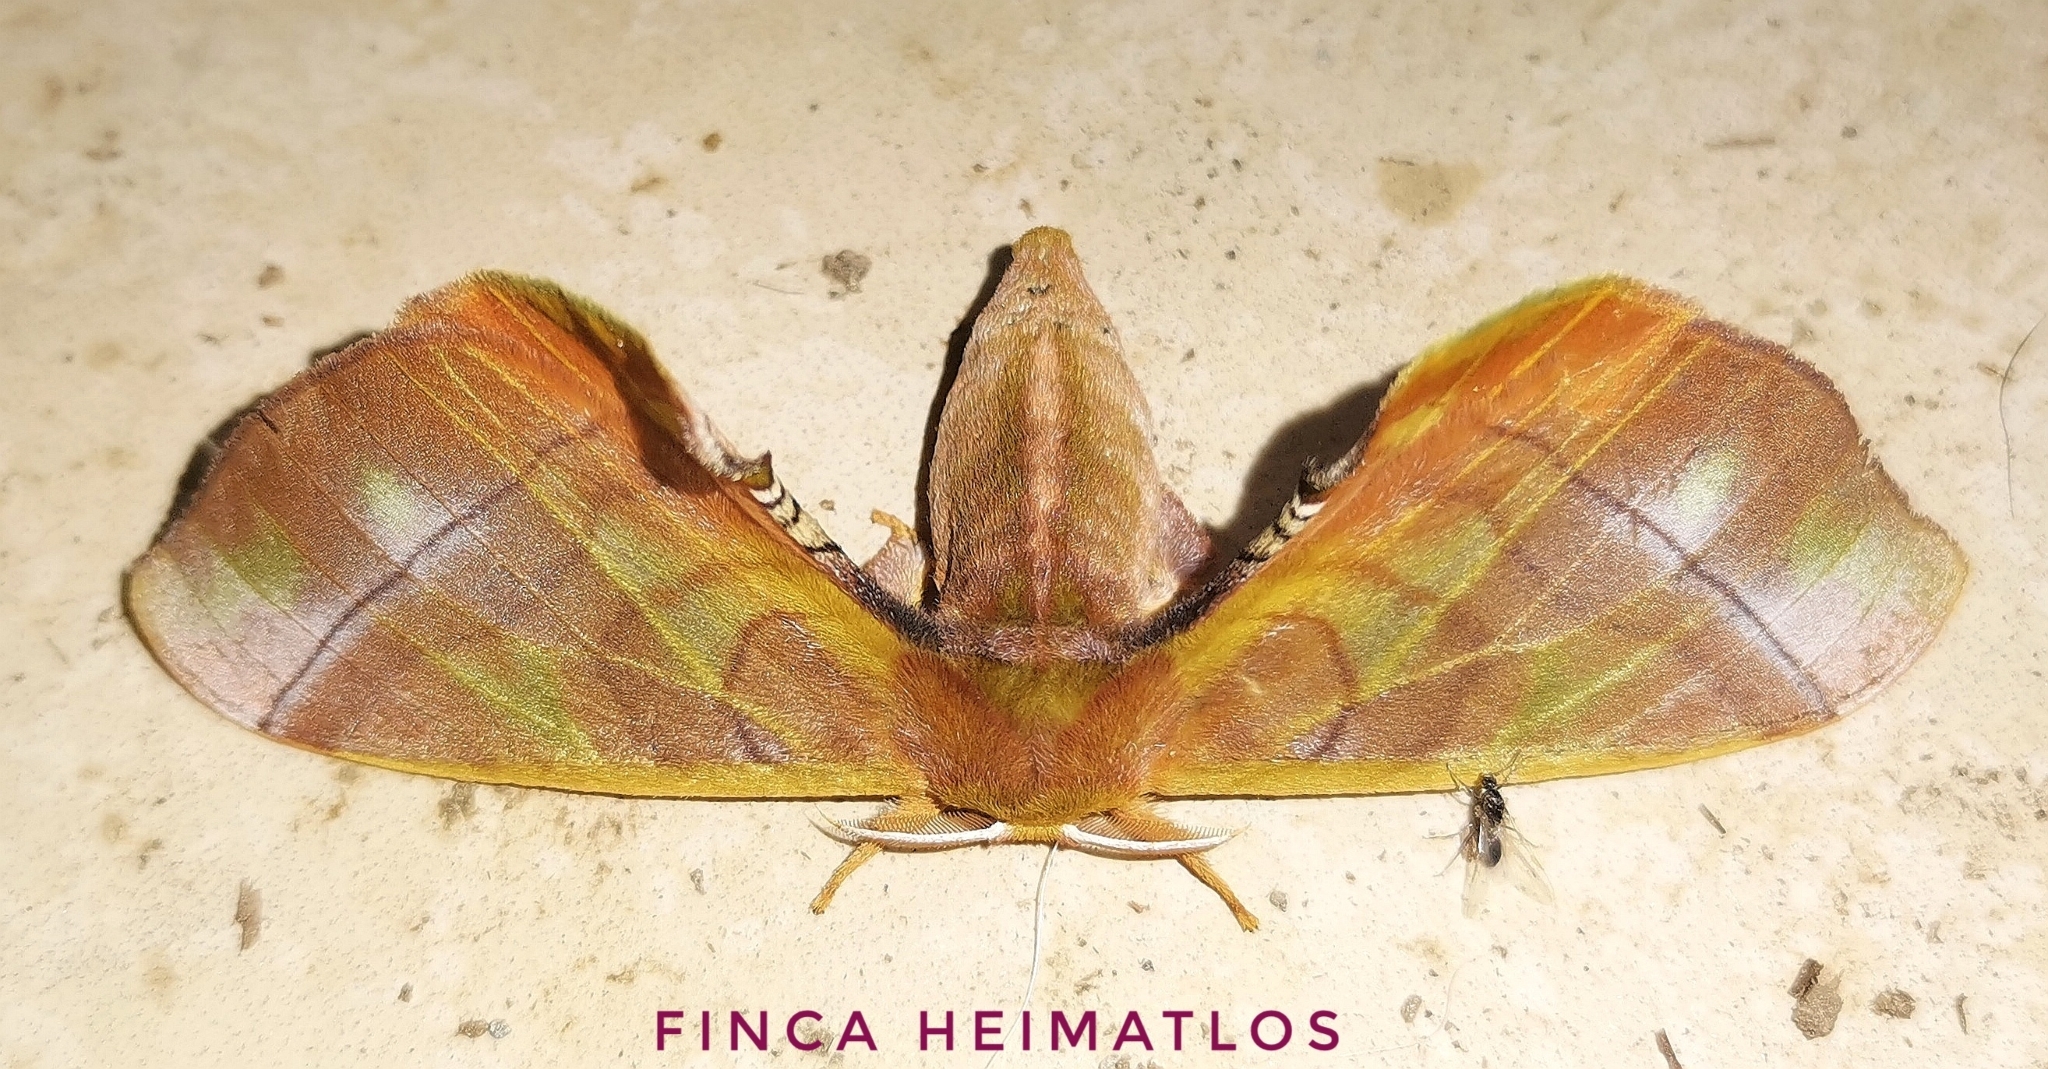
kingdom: Animalia
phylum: Arthropoda
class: Insecta
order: Lepidoptera
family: Bombycidae
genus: Epia
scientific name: Epia casnonia
